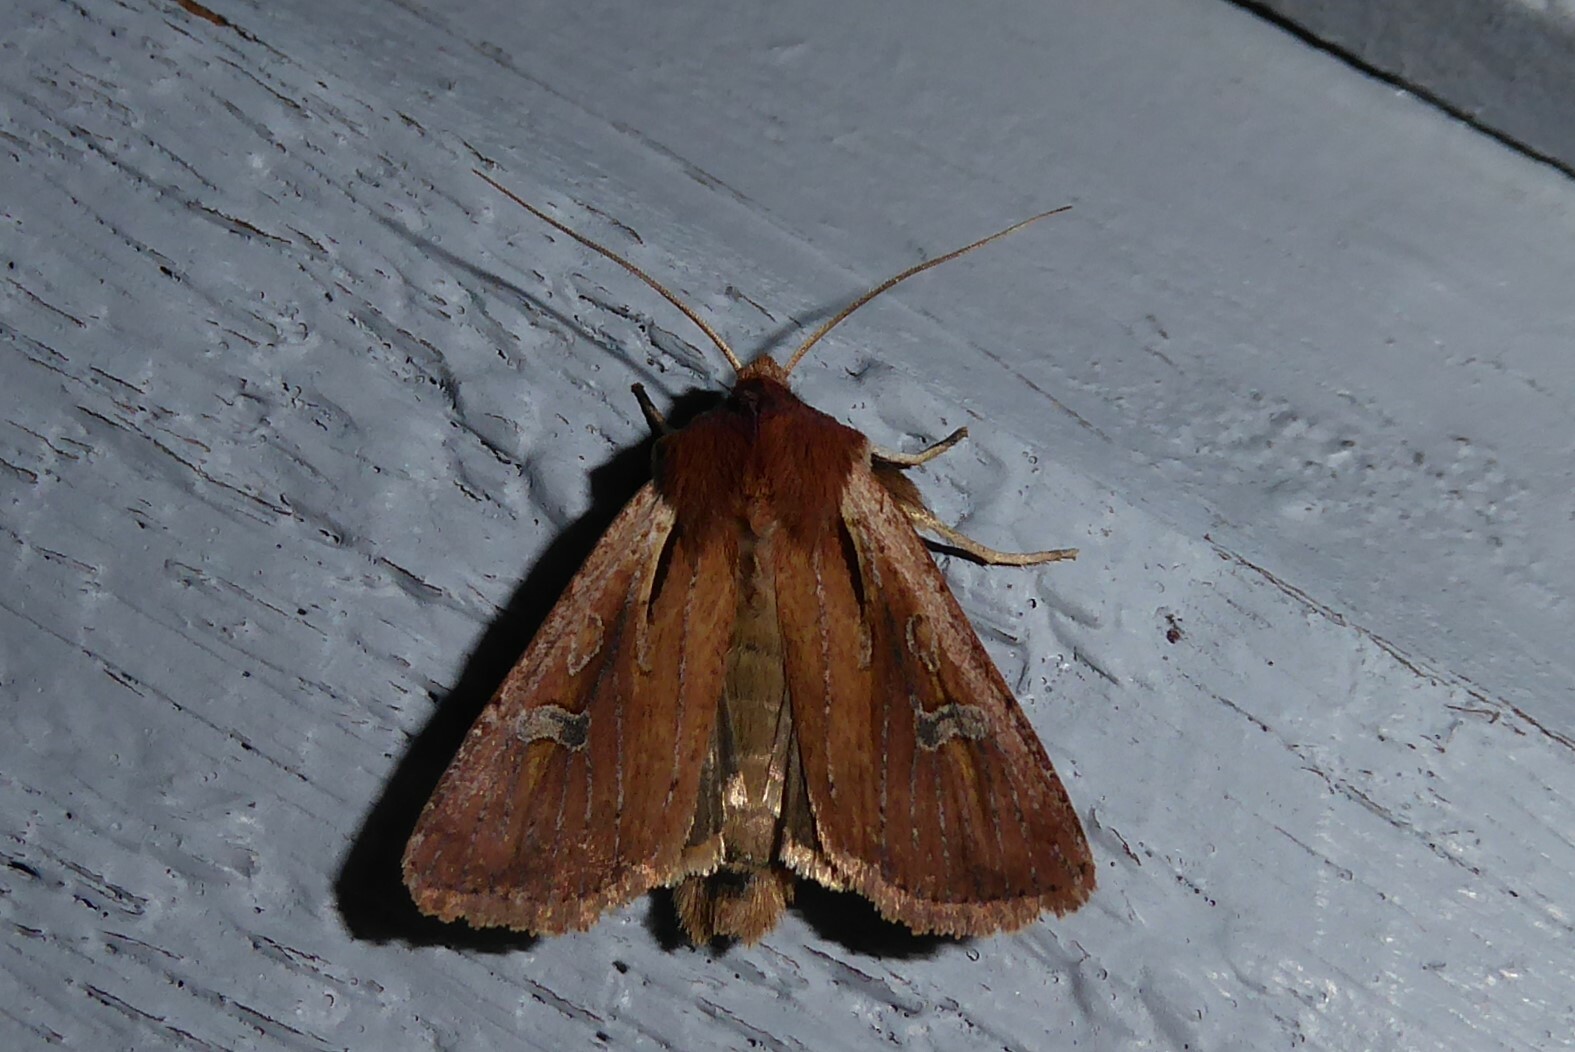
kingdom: Animalia
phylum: Arthropoda
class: Insecta
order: Lepidoptera
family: Noctuidae
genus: Ichneutica
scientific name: Ichneutica atristriga
